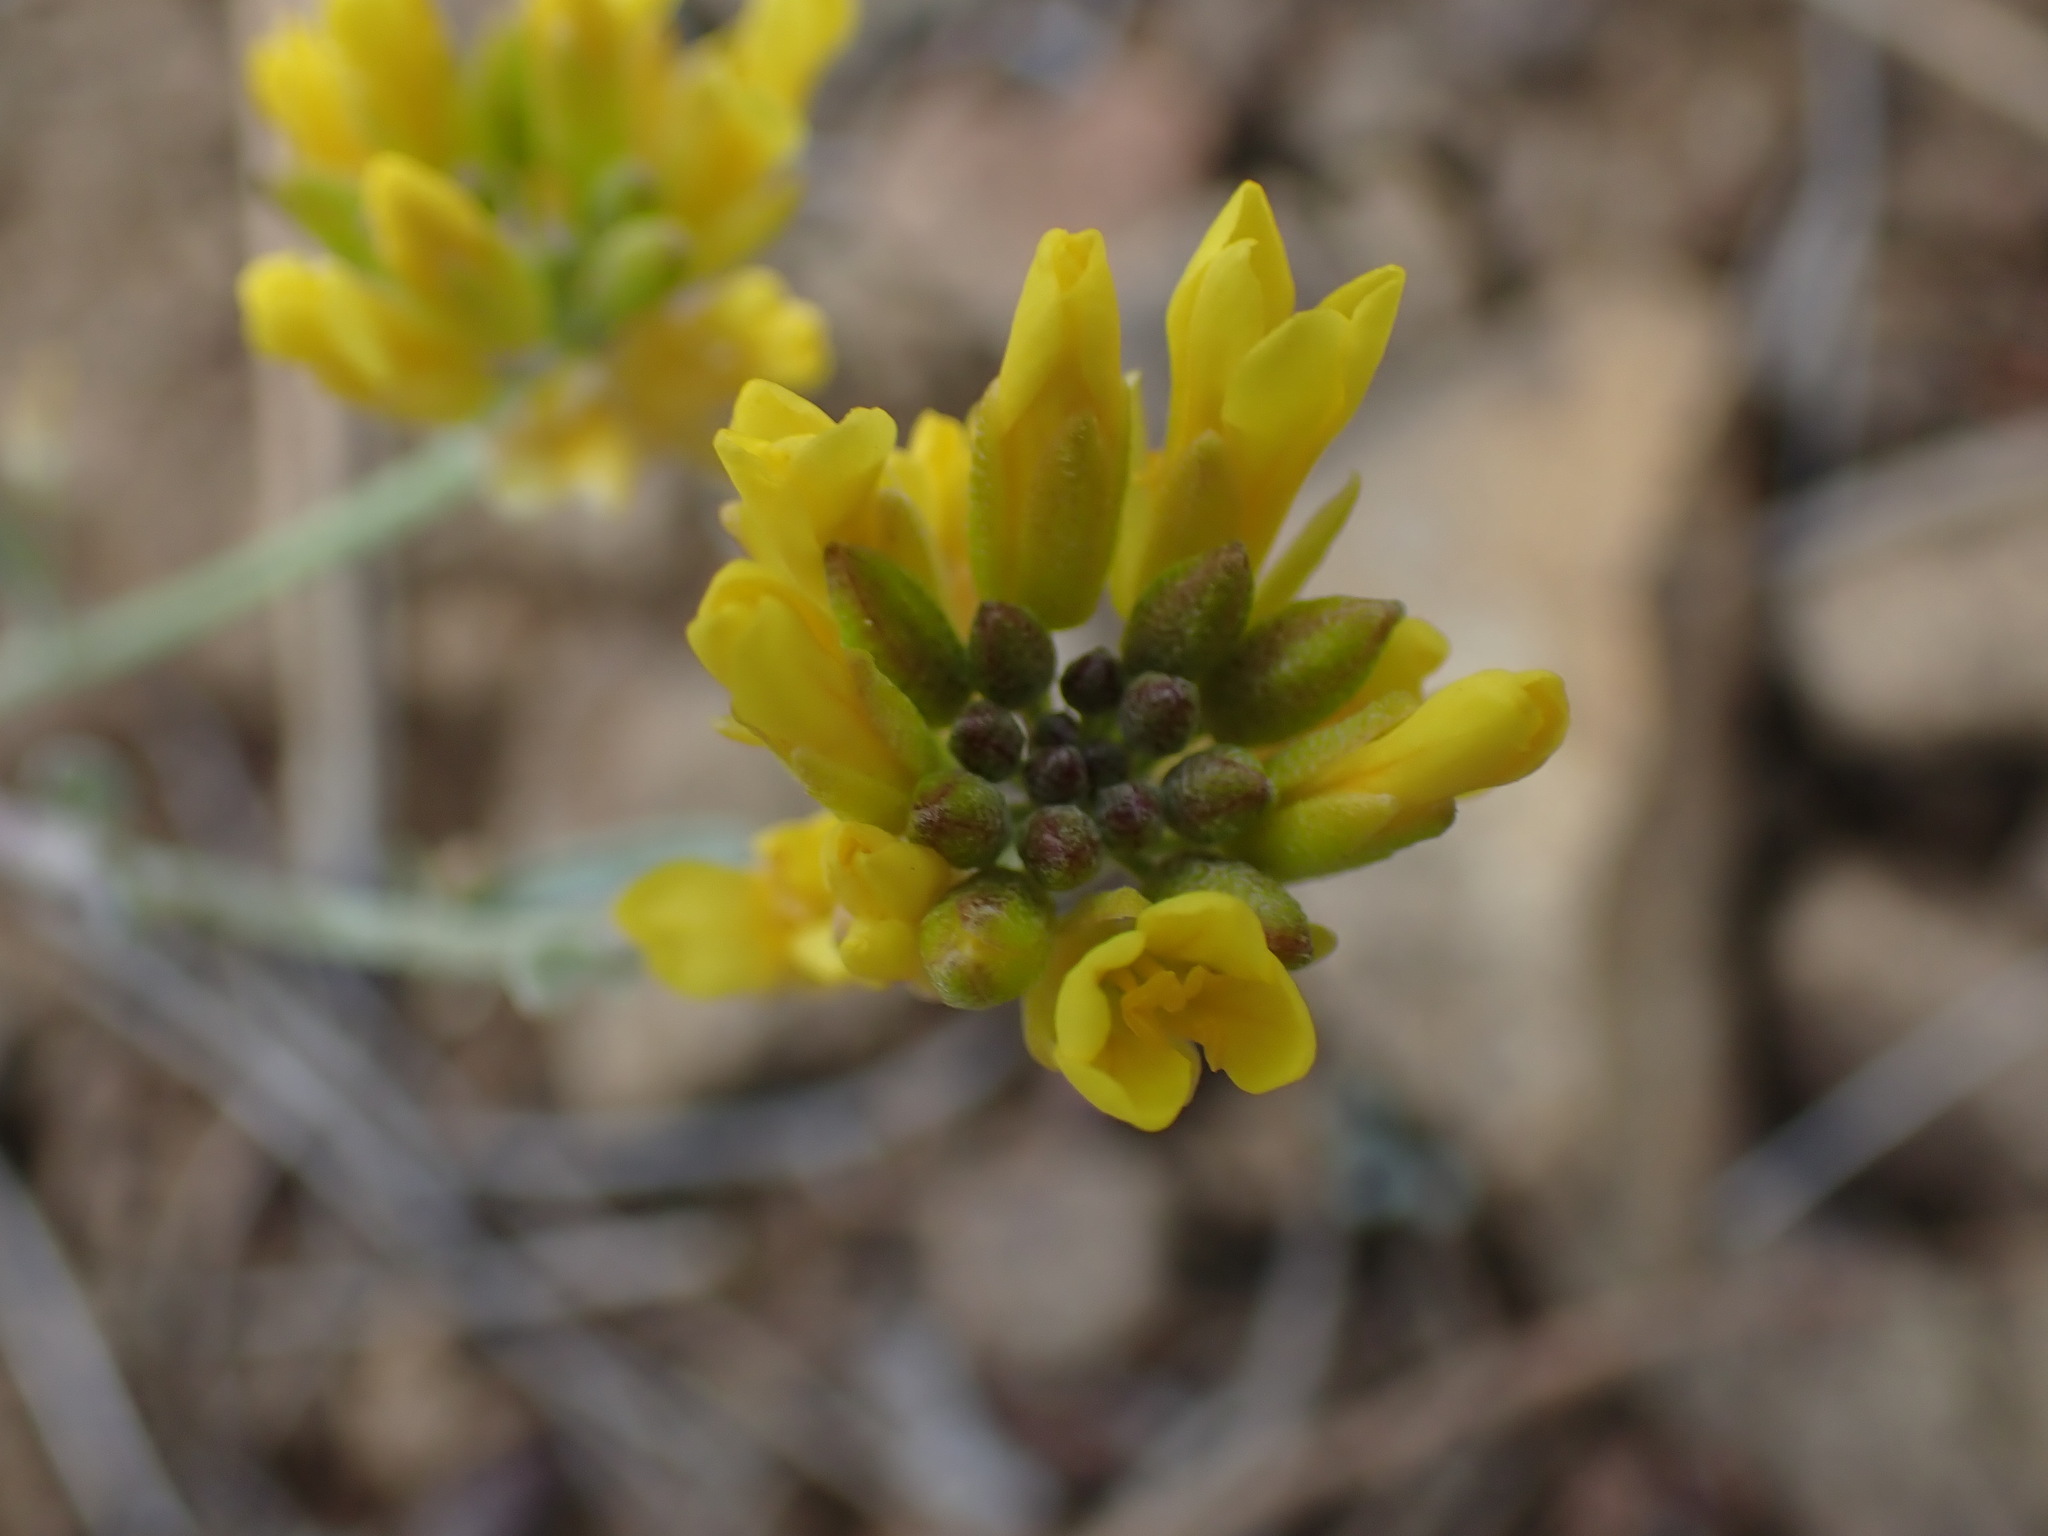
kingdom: Plantae
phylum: Tracheophyta
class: Magnoliopsida
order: Brassicales
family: Brassicaceae
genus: Physaria
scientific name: Physaria douglasii
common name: Douglas's bladderpod
